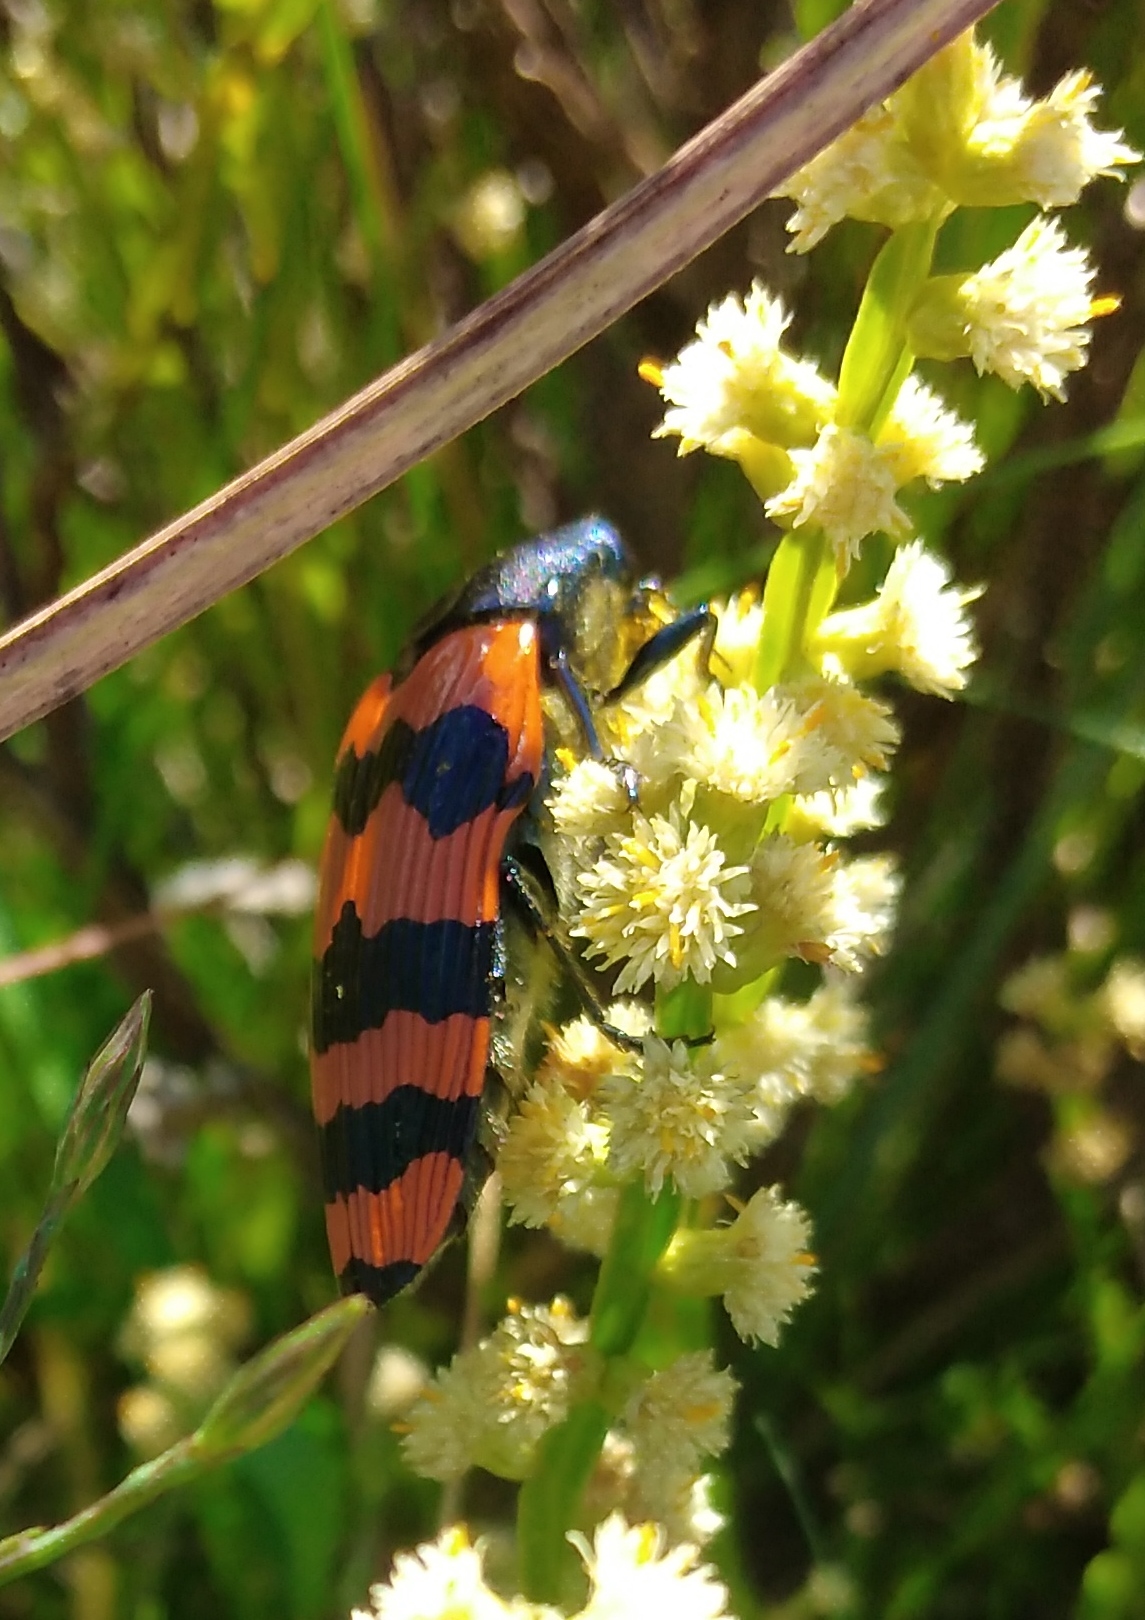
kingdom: Animalia
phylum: Arthropoda
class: Insecta
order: Coleoptera
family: Buprestidae
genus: Conognatha
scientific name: Conognatha sellovii
